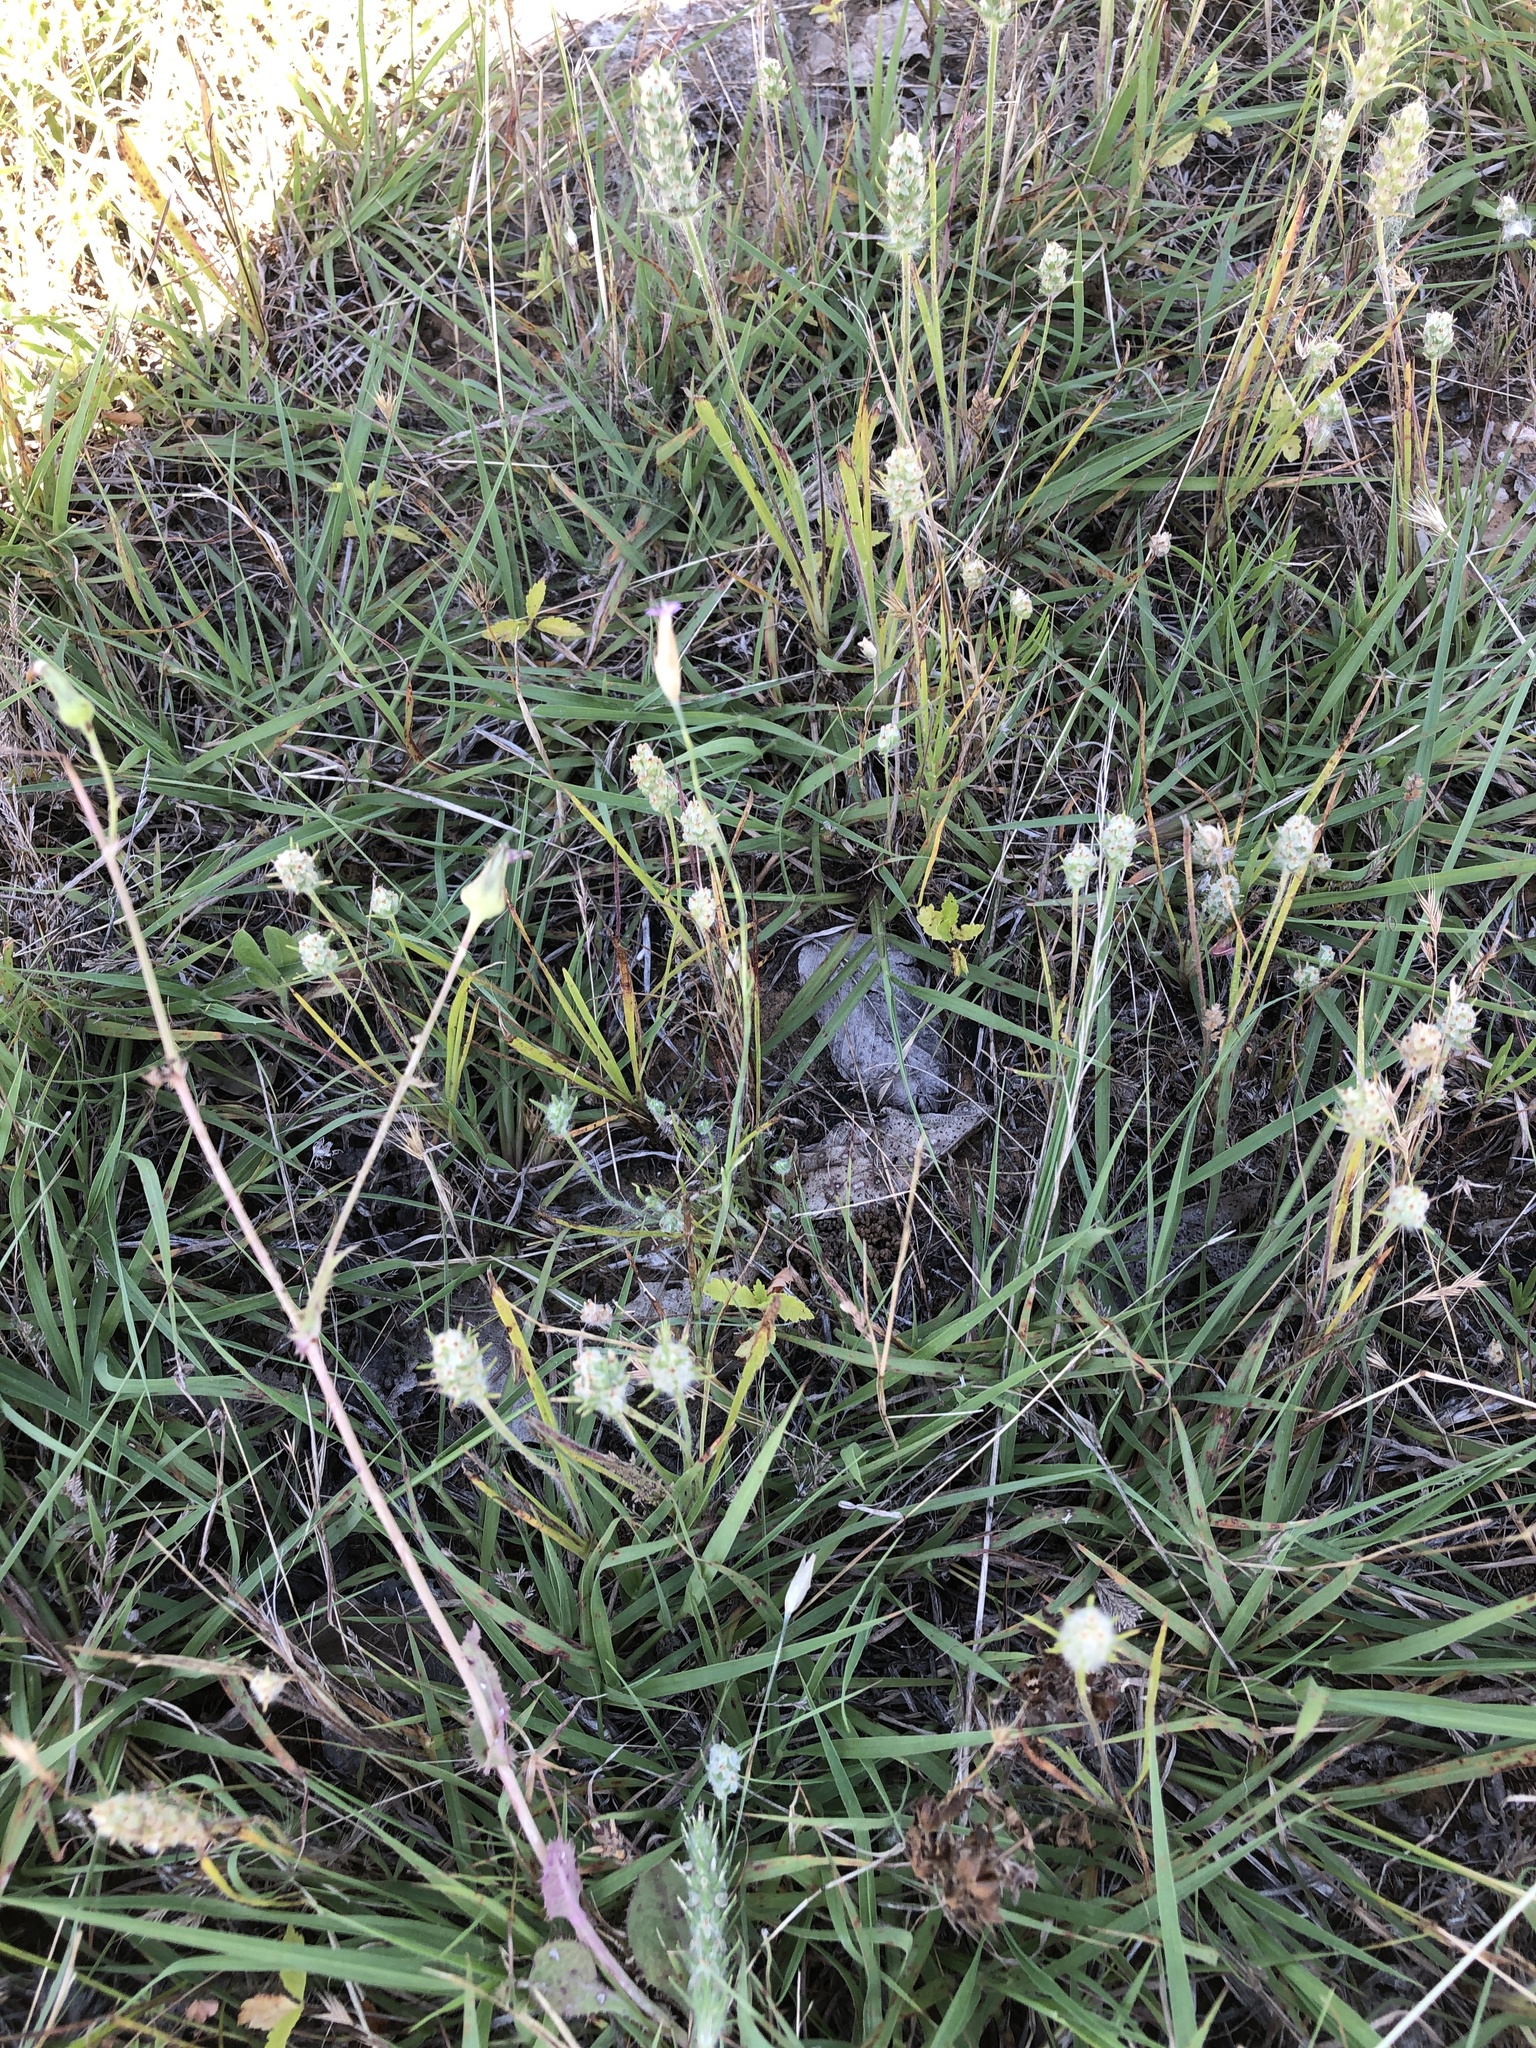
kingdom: Plantae
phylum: Tracheophyta
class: Magnoliopsida
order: Caryophyllales
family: Caryophyllaceae
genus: Petrorhagia
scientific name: Petrorhagia dubia
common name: Hairypink
